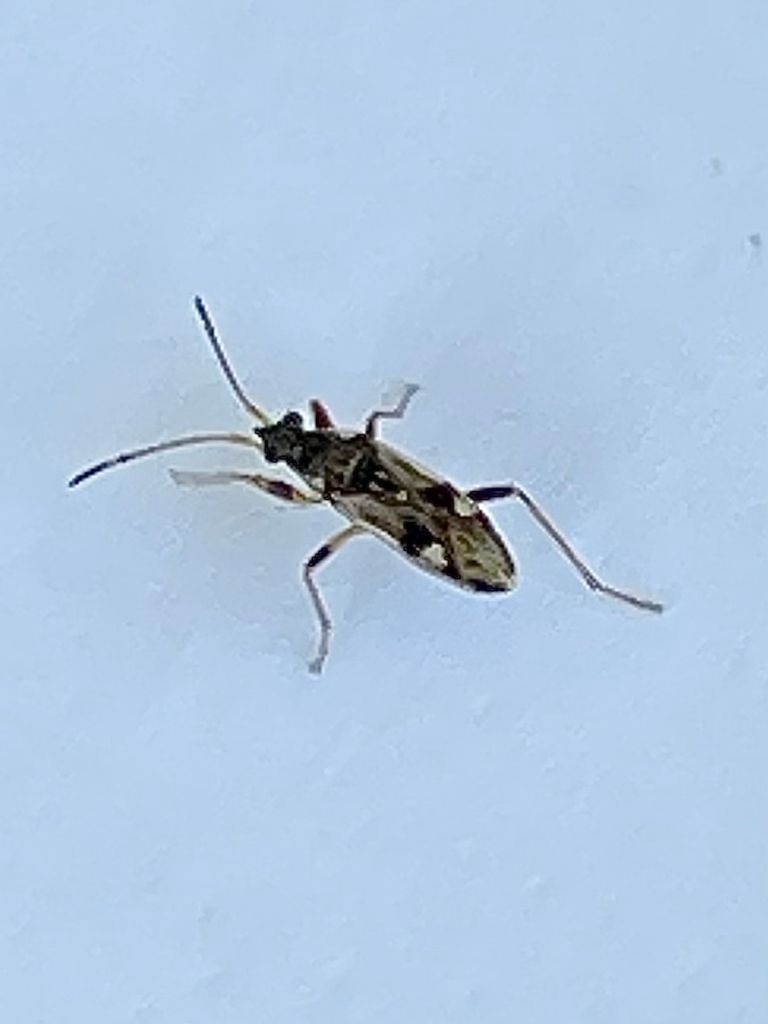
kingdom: Animalia
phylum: Arthropoda
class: Insecta
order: Hemiptera
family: Rhyparochromidae
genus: Beosus
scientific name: Beosus maritimus
